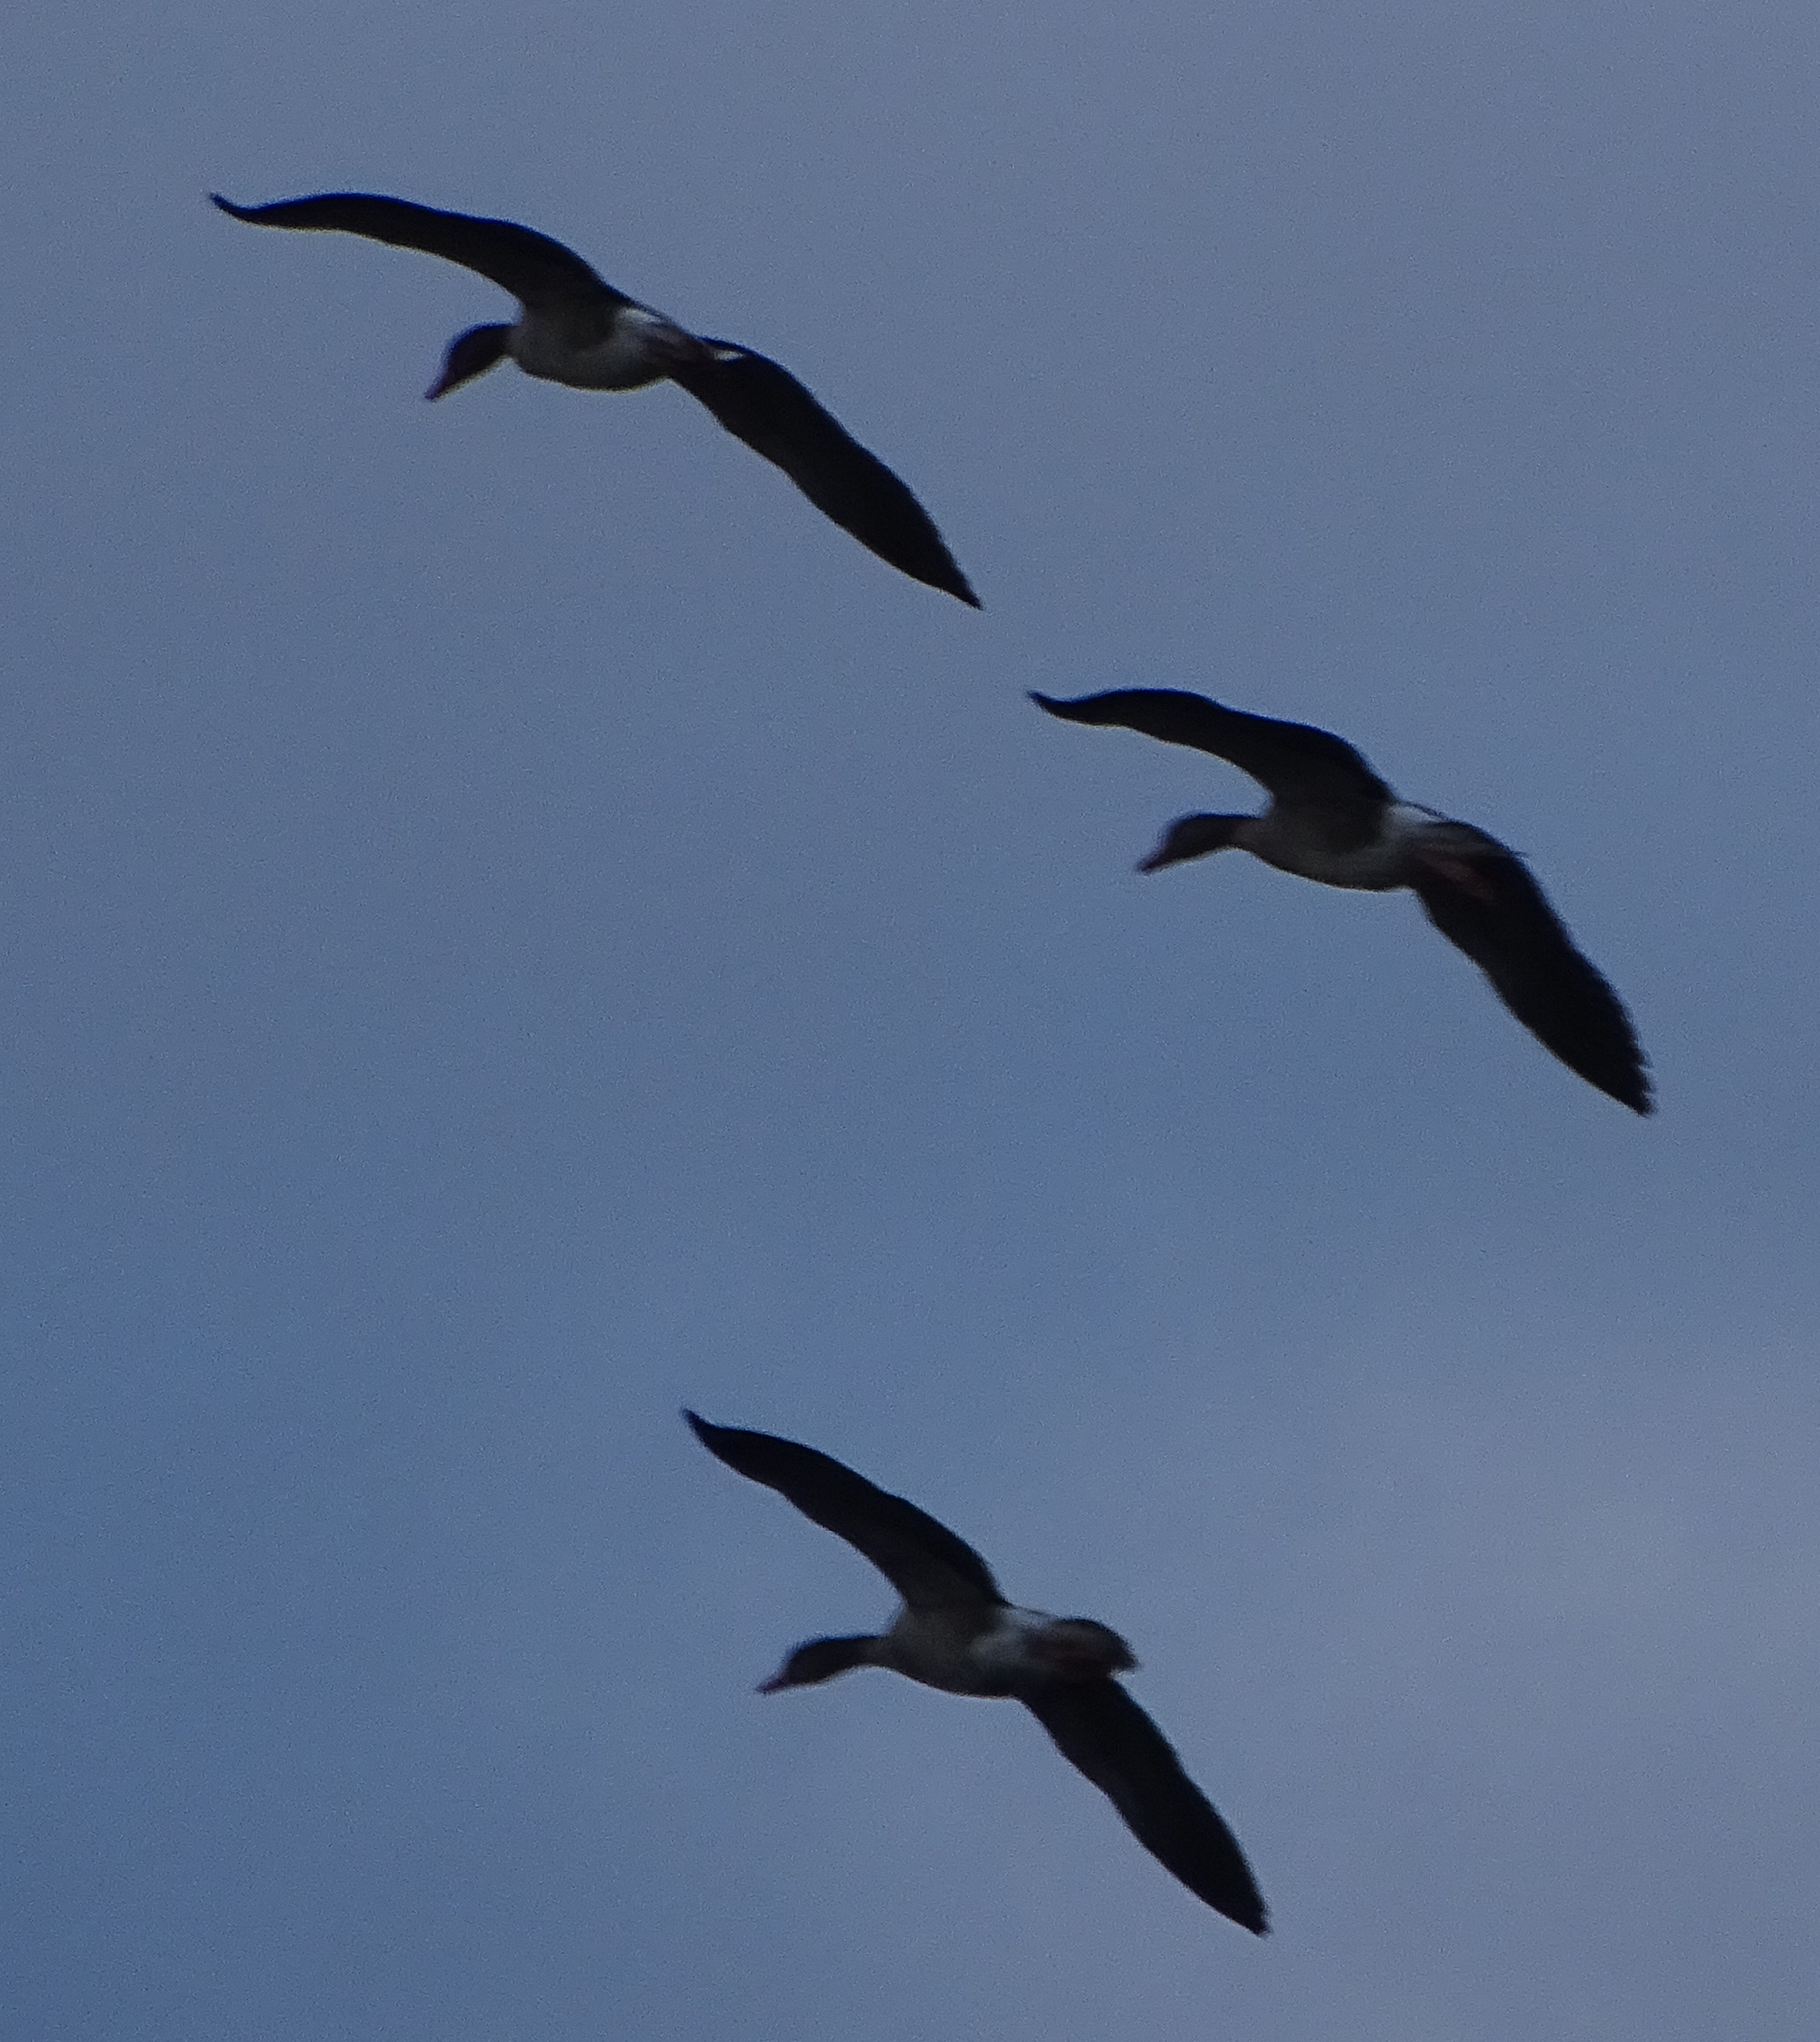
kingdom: Animalia
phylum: Chordata
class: Aves
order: Anseriformes
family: Anatidae
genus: Anser
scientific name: Anser anser
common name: Greylag goose
